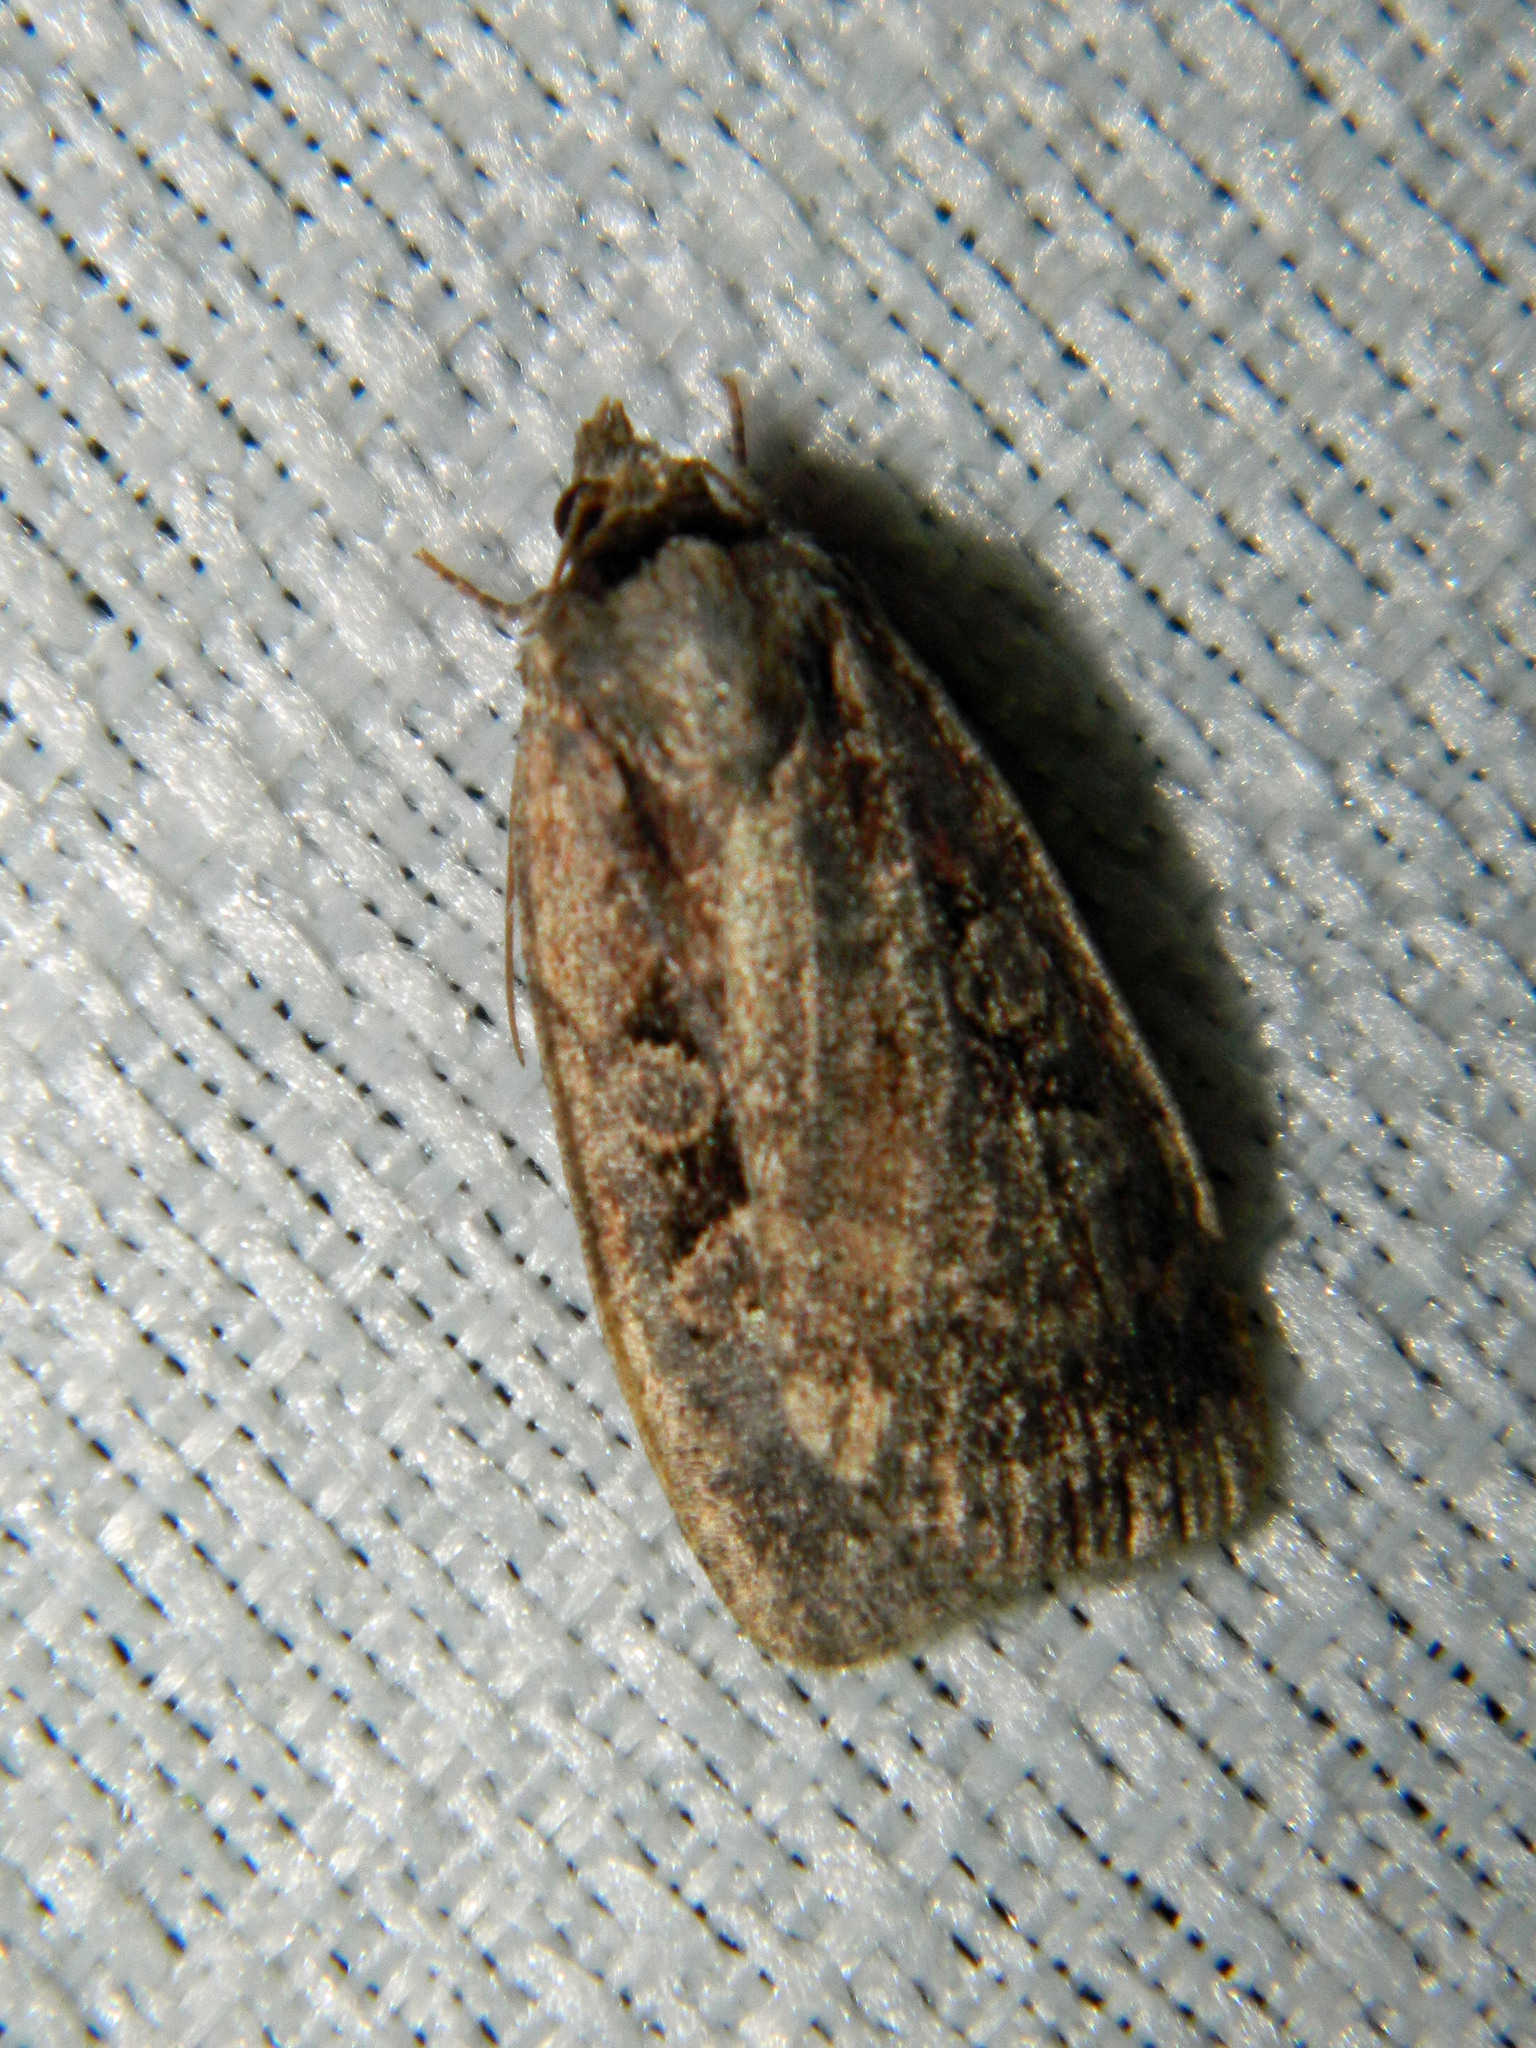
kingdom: Animalia
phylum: Arthropoda
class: Insecta
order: Lepidoptera
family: Noctuidae
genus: Eueretagrotis
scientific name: Eueretagrotis perattentus
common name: Two-spot dart moth
